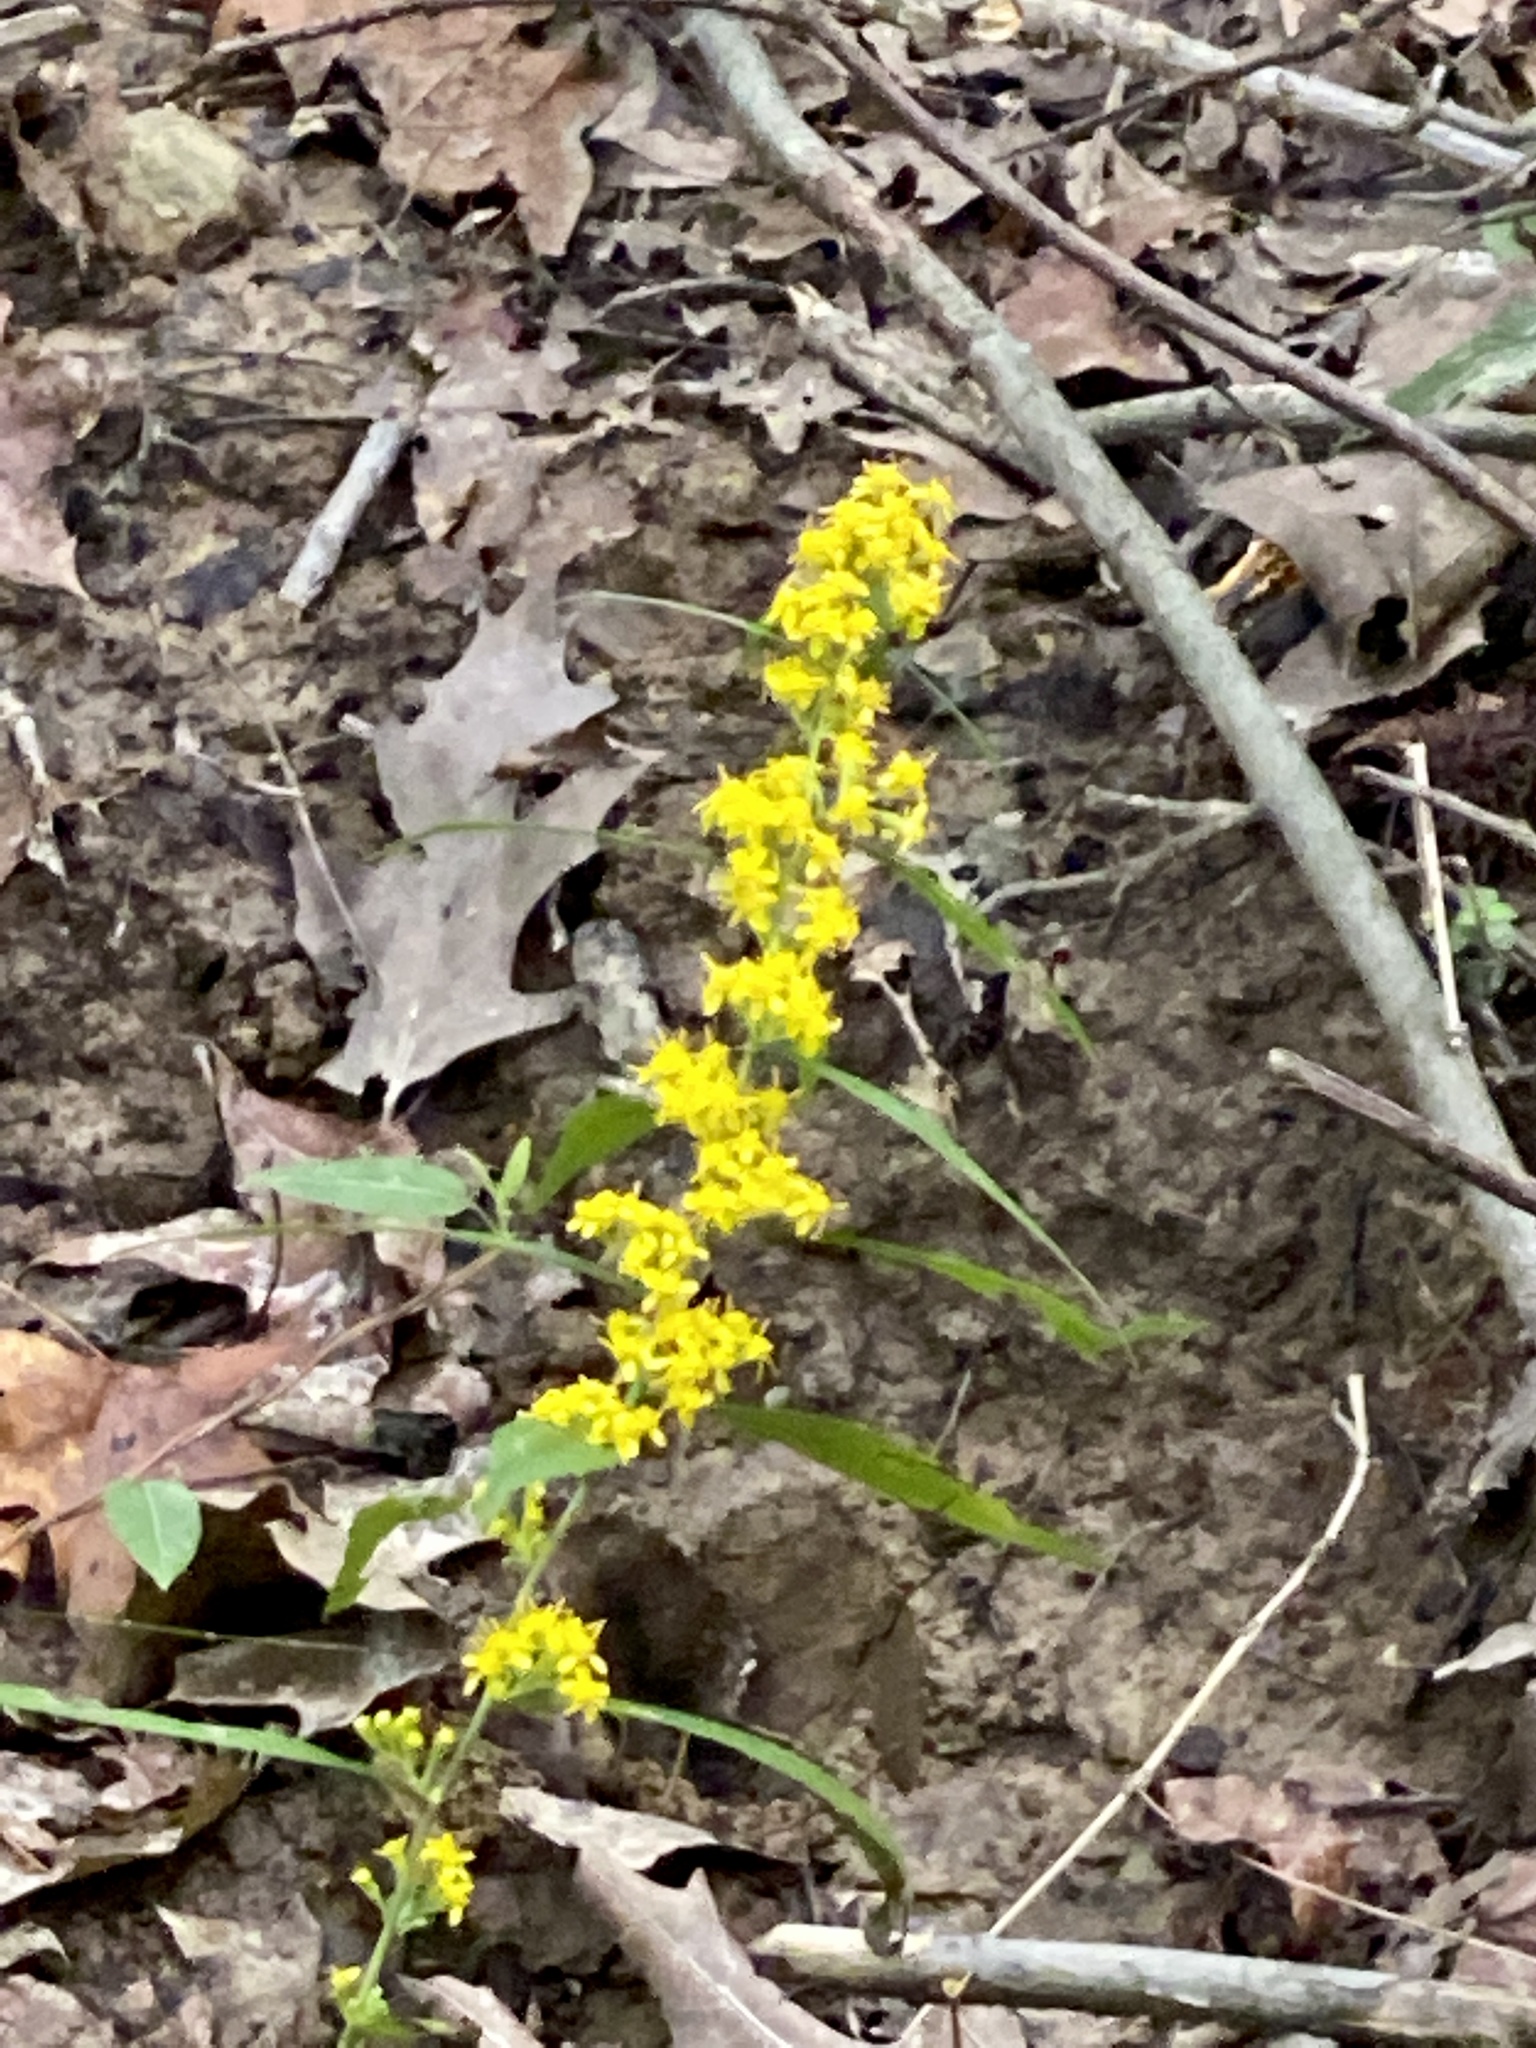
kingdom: Plantae
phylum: Tracheophyta
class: Magnoliopsida
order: Asterales
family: Asteraceae
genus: Solidago
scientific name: Solidago caesia
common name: Woodland goldenrod
